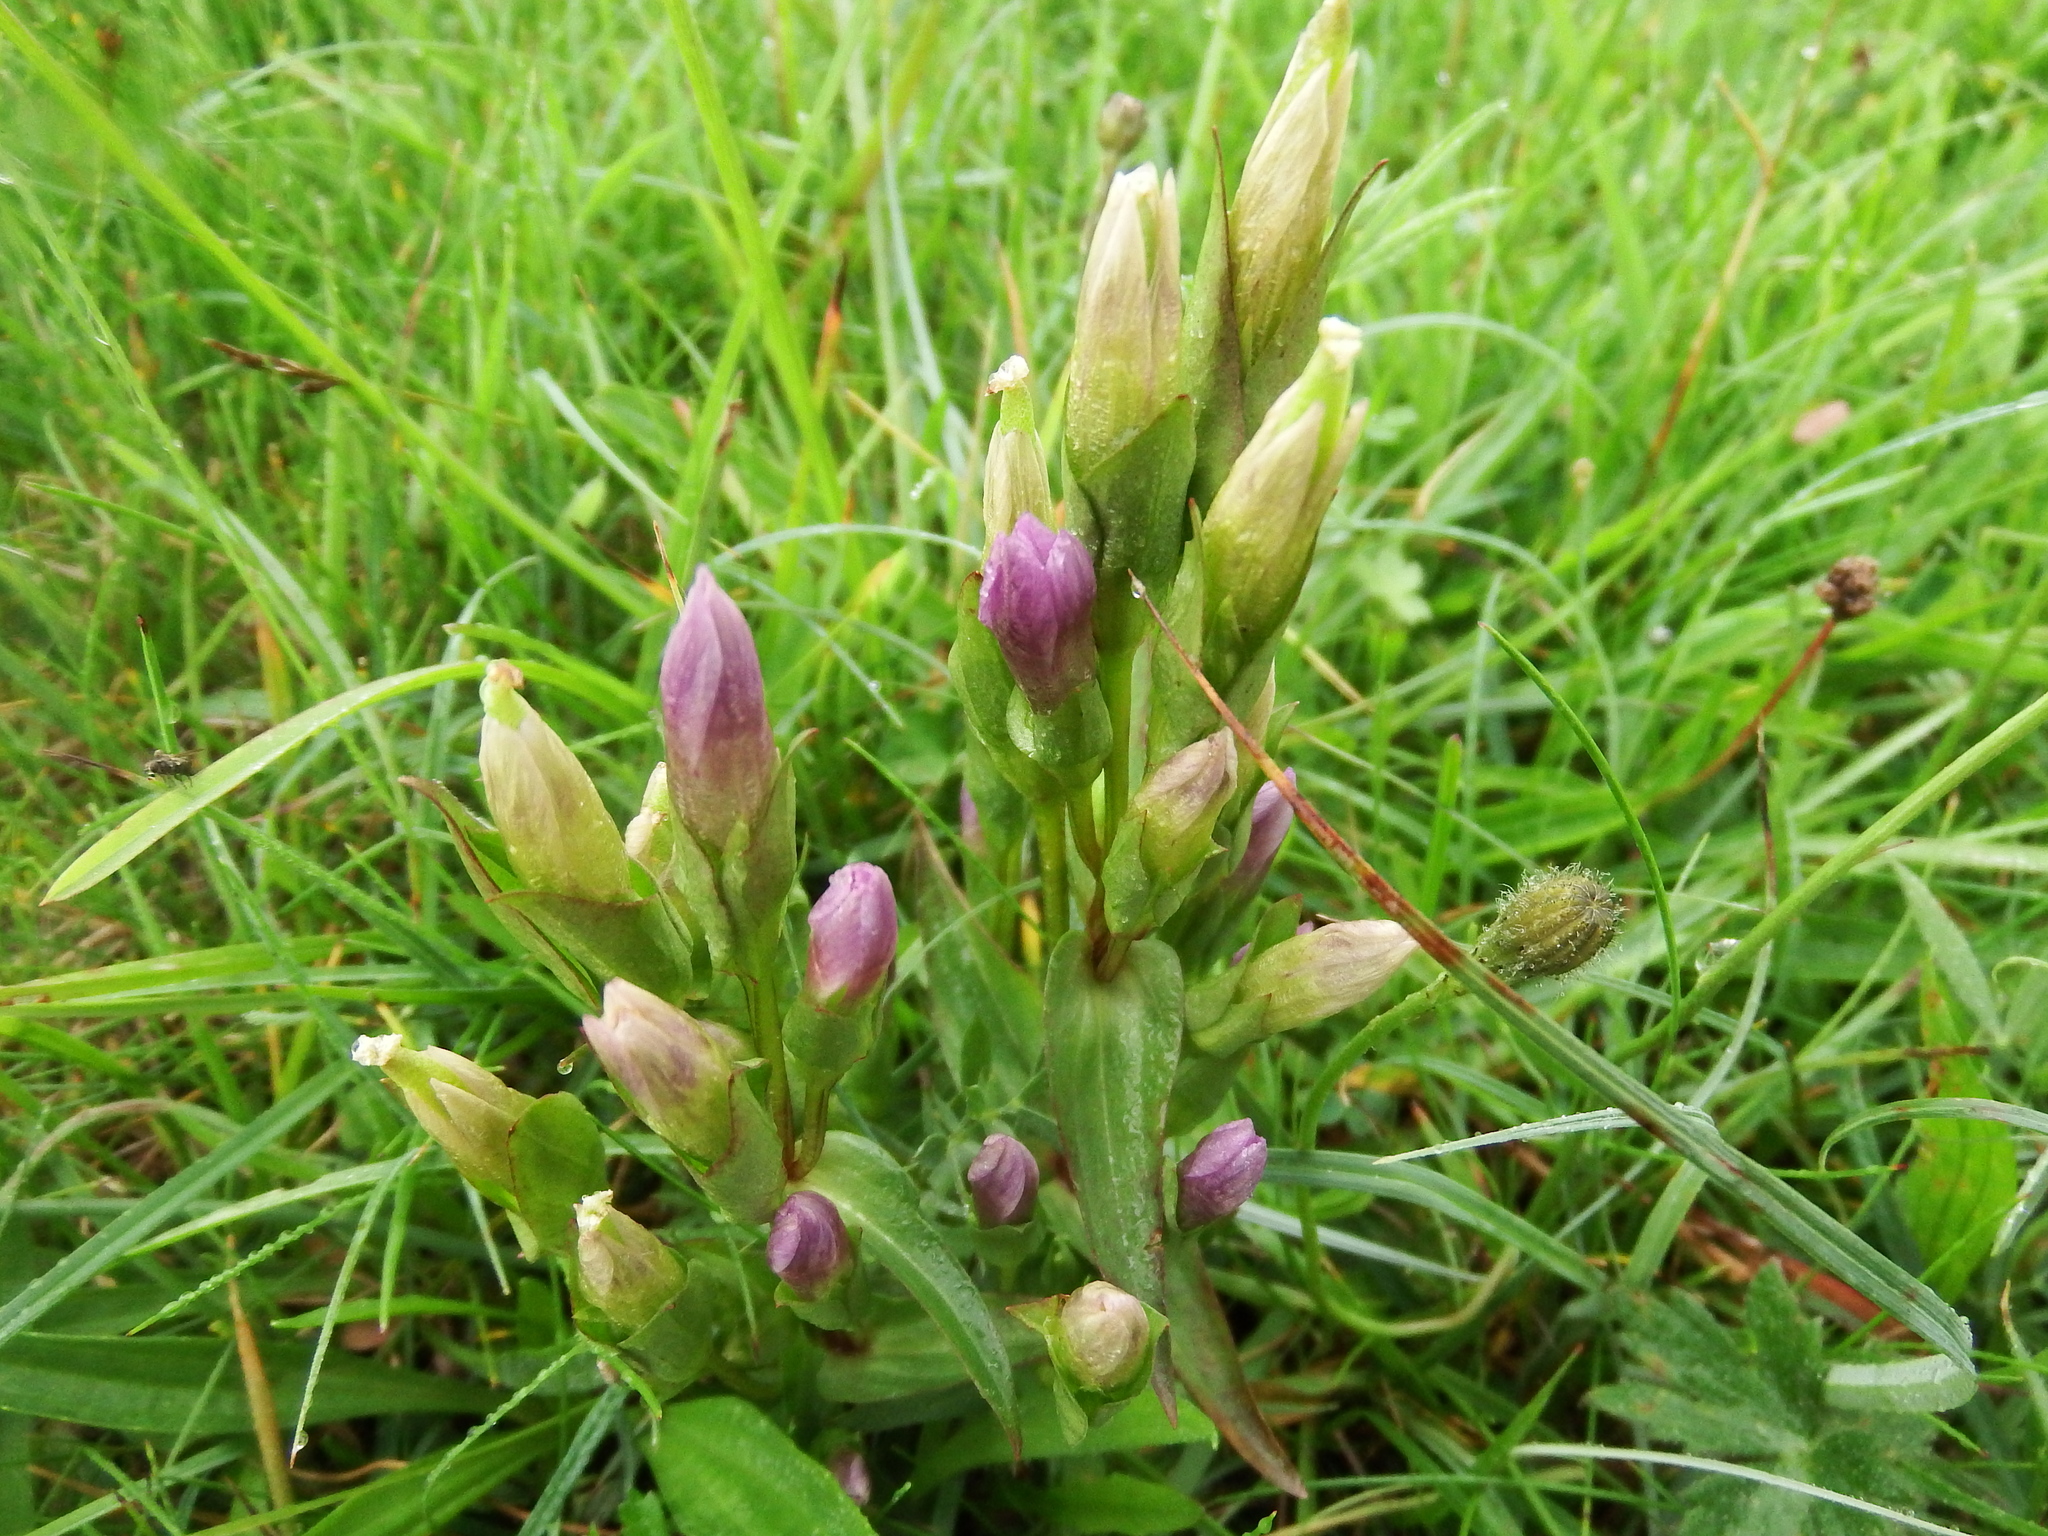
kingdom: Plantae
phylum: Tracheophyta
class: Magnoliopsida
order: Gentianales
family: Gentianaceae
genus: Gentianella
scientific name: Gentianella campestris
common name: Field gentian
